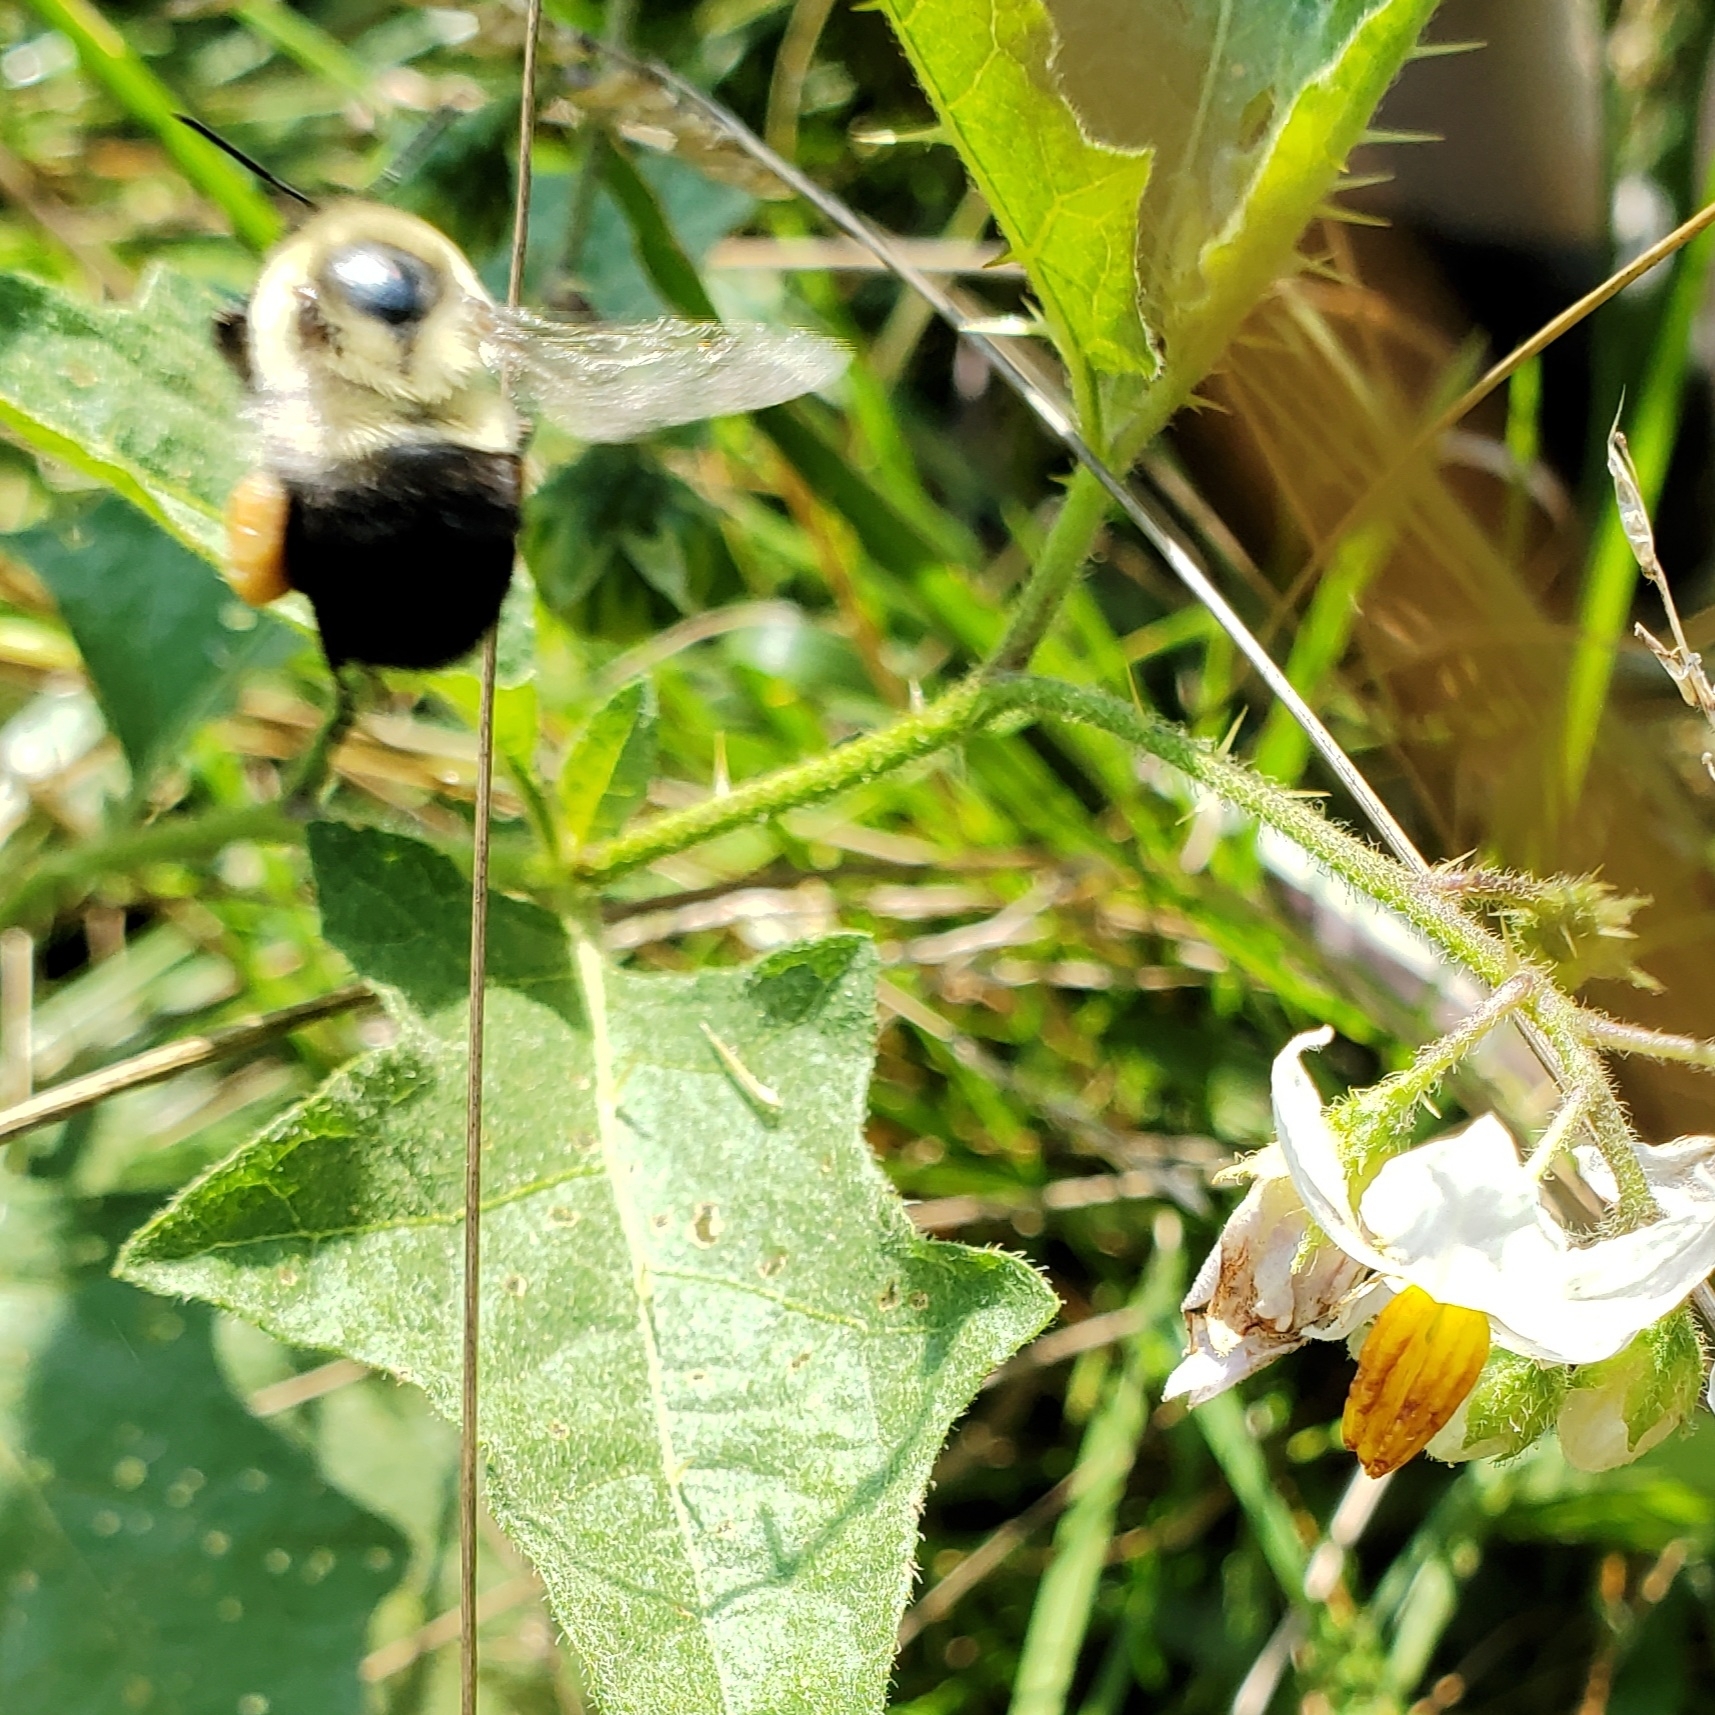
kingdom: Animalia
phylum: Arthropoda
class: Insecta
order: Hymenoptera
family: Apidae
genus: Bombus
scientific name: Bombus impatiens
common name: Common eastern bumble bee
